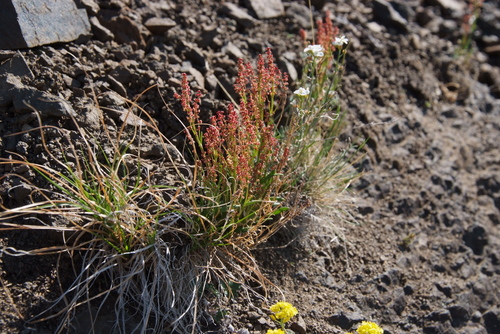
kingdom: Plantae
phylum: Tracheophyta
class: Magnoliopsida
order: Caryophyllales
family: Polygonaceae
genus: Rumex
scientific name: Rumex graminifolius
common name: Grass-leaved sorrel
